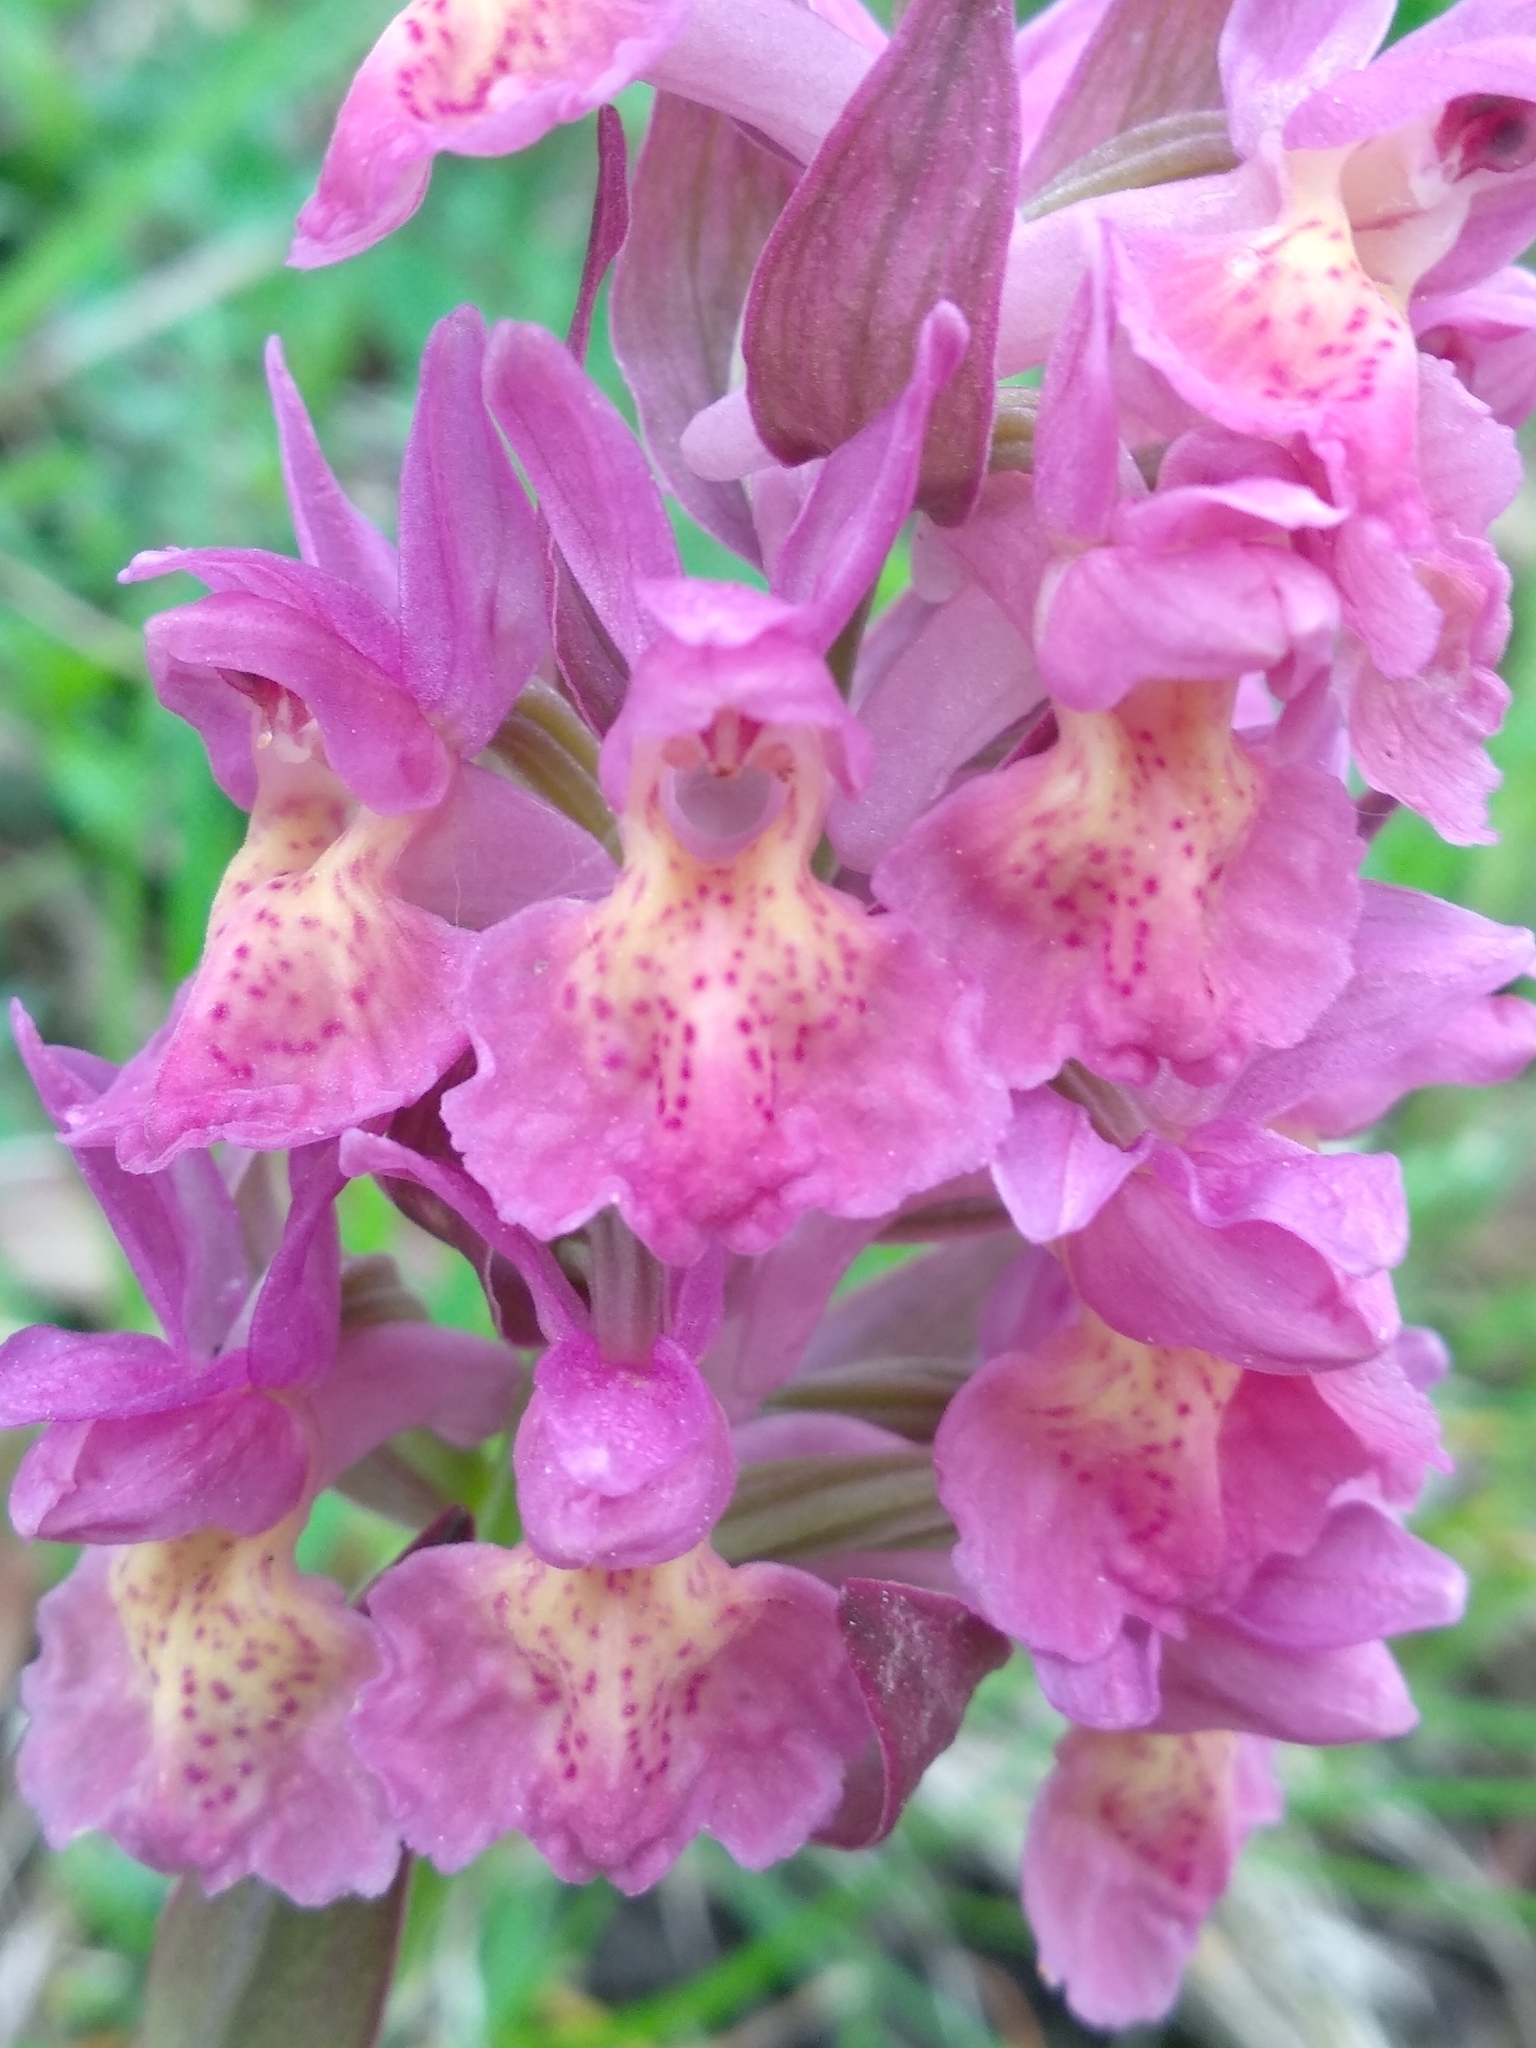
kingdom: Plantae
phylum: Tracheophyta
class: Liliopsida
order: Asparagales
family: Orchidaceae
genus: Dactylorhiza
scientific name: Dactylorhiza sambucina
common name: Elder-flowered orchid
